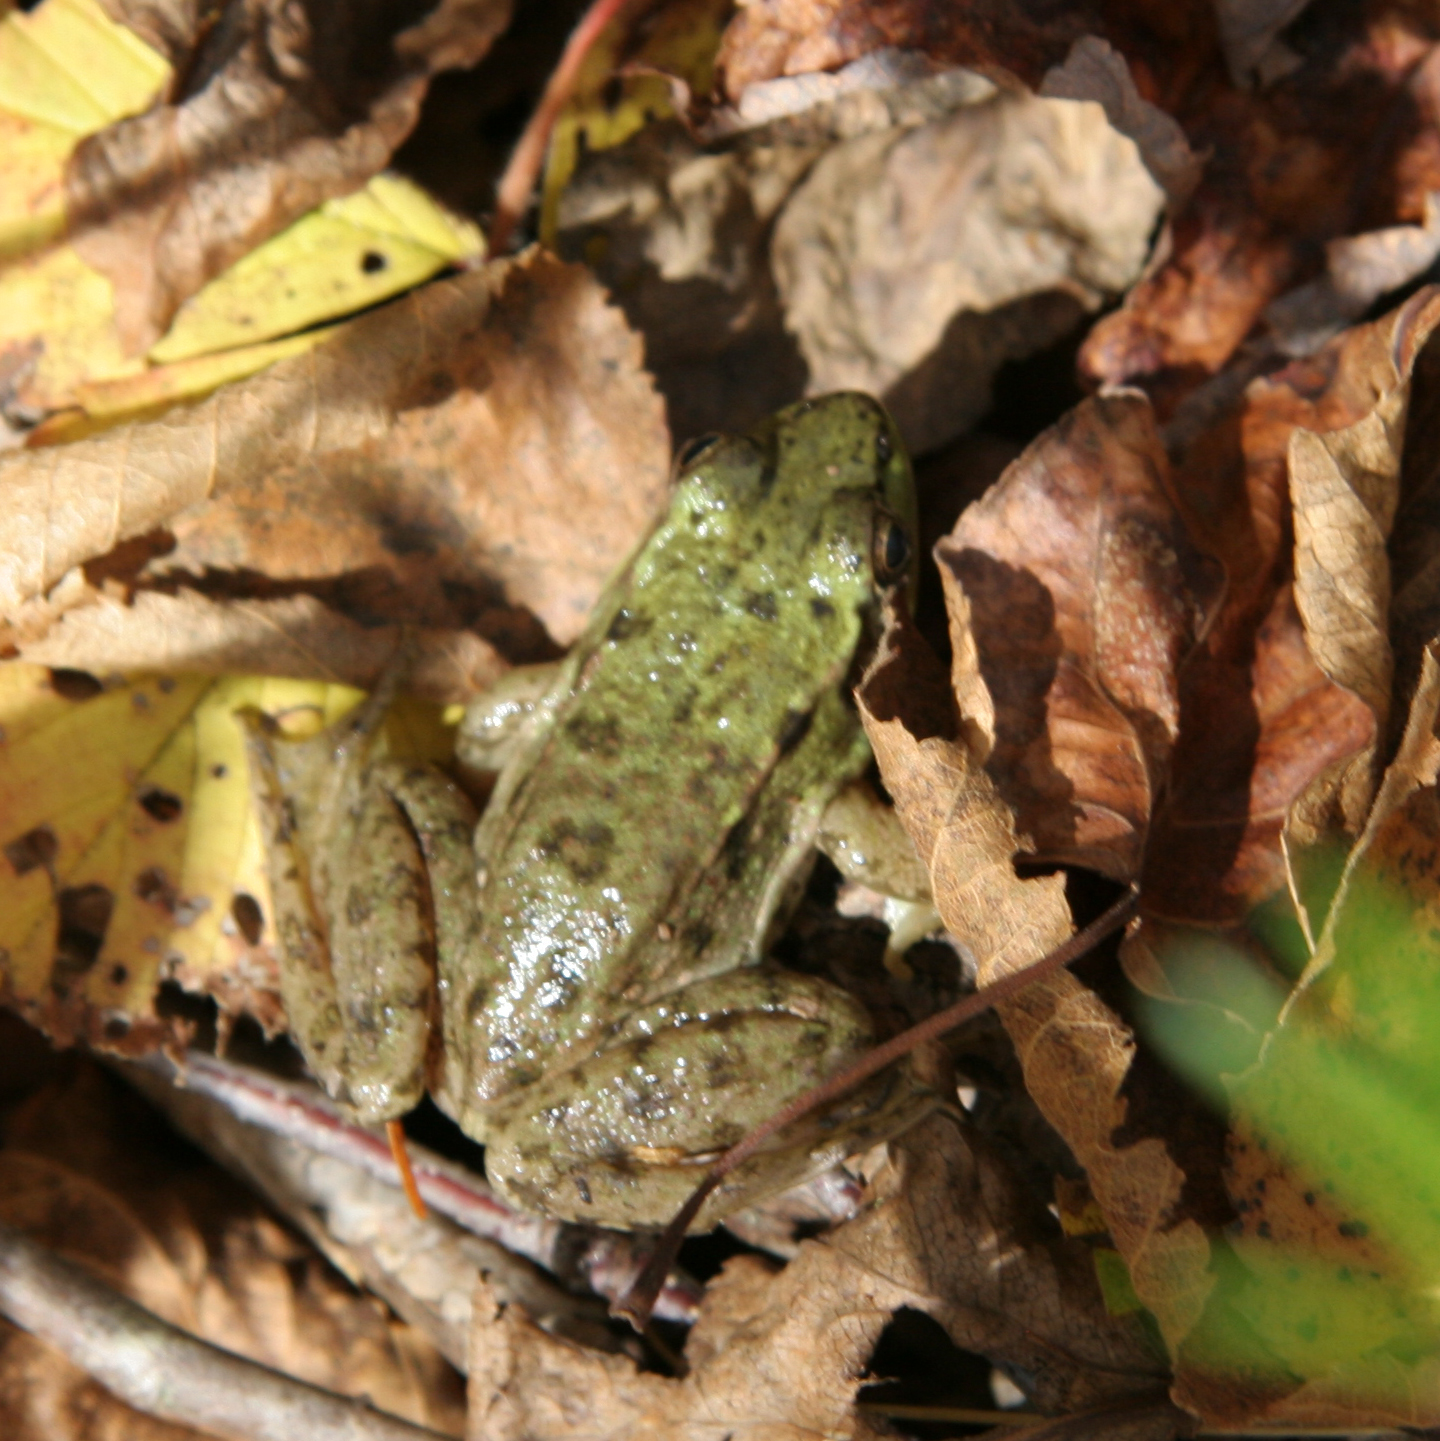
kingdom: Animalia
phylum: Chordata
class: Amphibia
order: Anura
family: Ranidae
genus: Lithobates
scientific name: Lithobates clamitans
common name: Green frog
